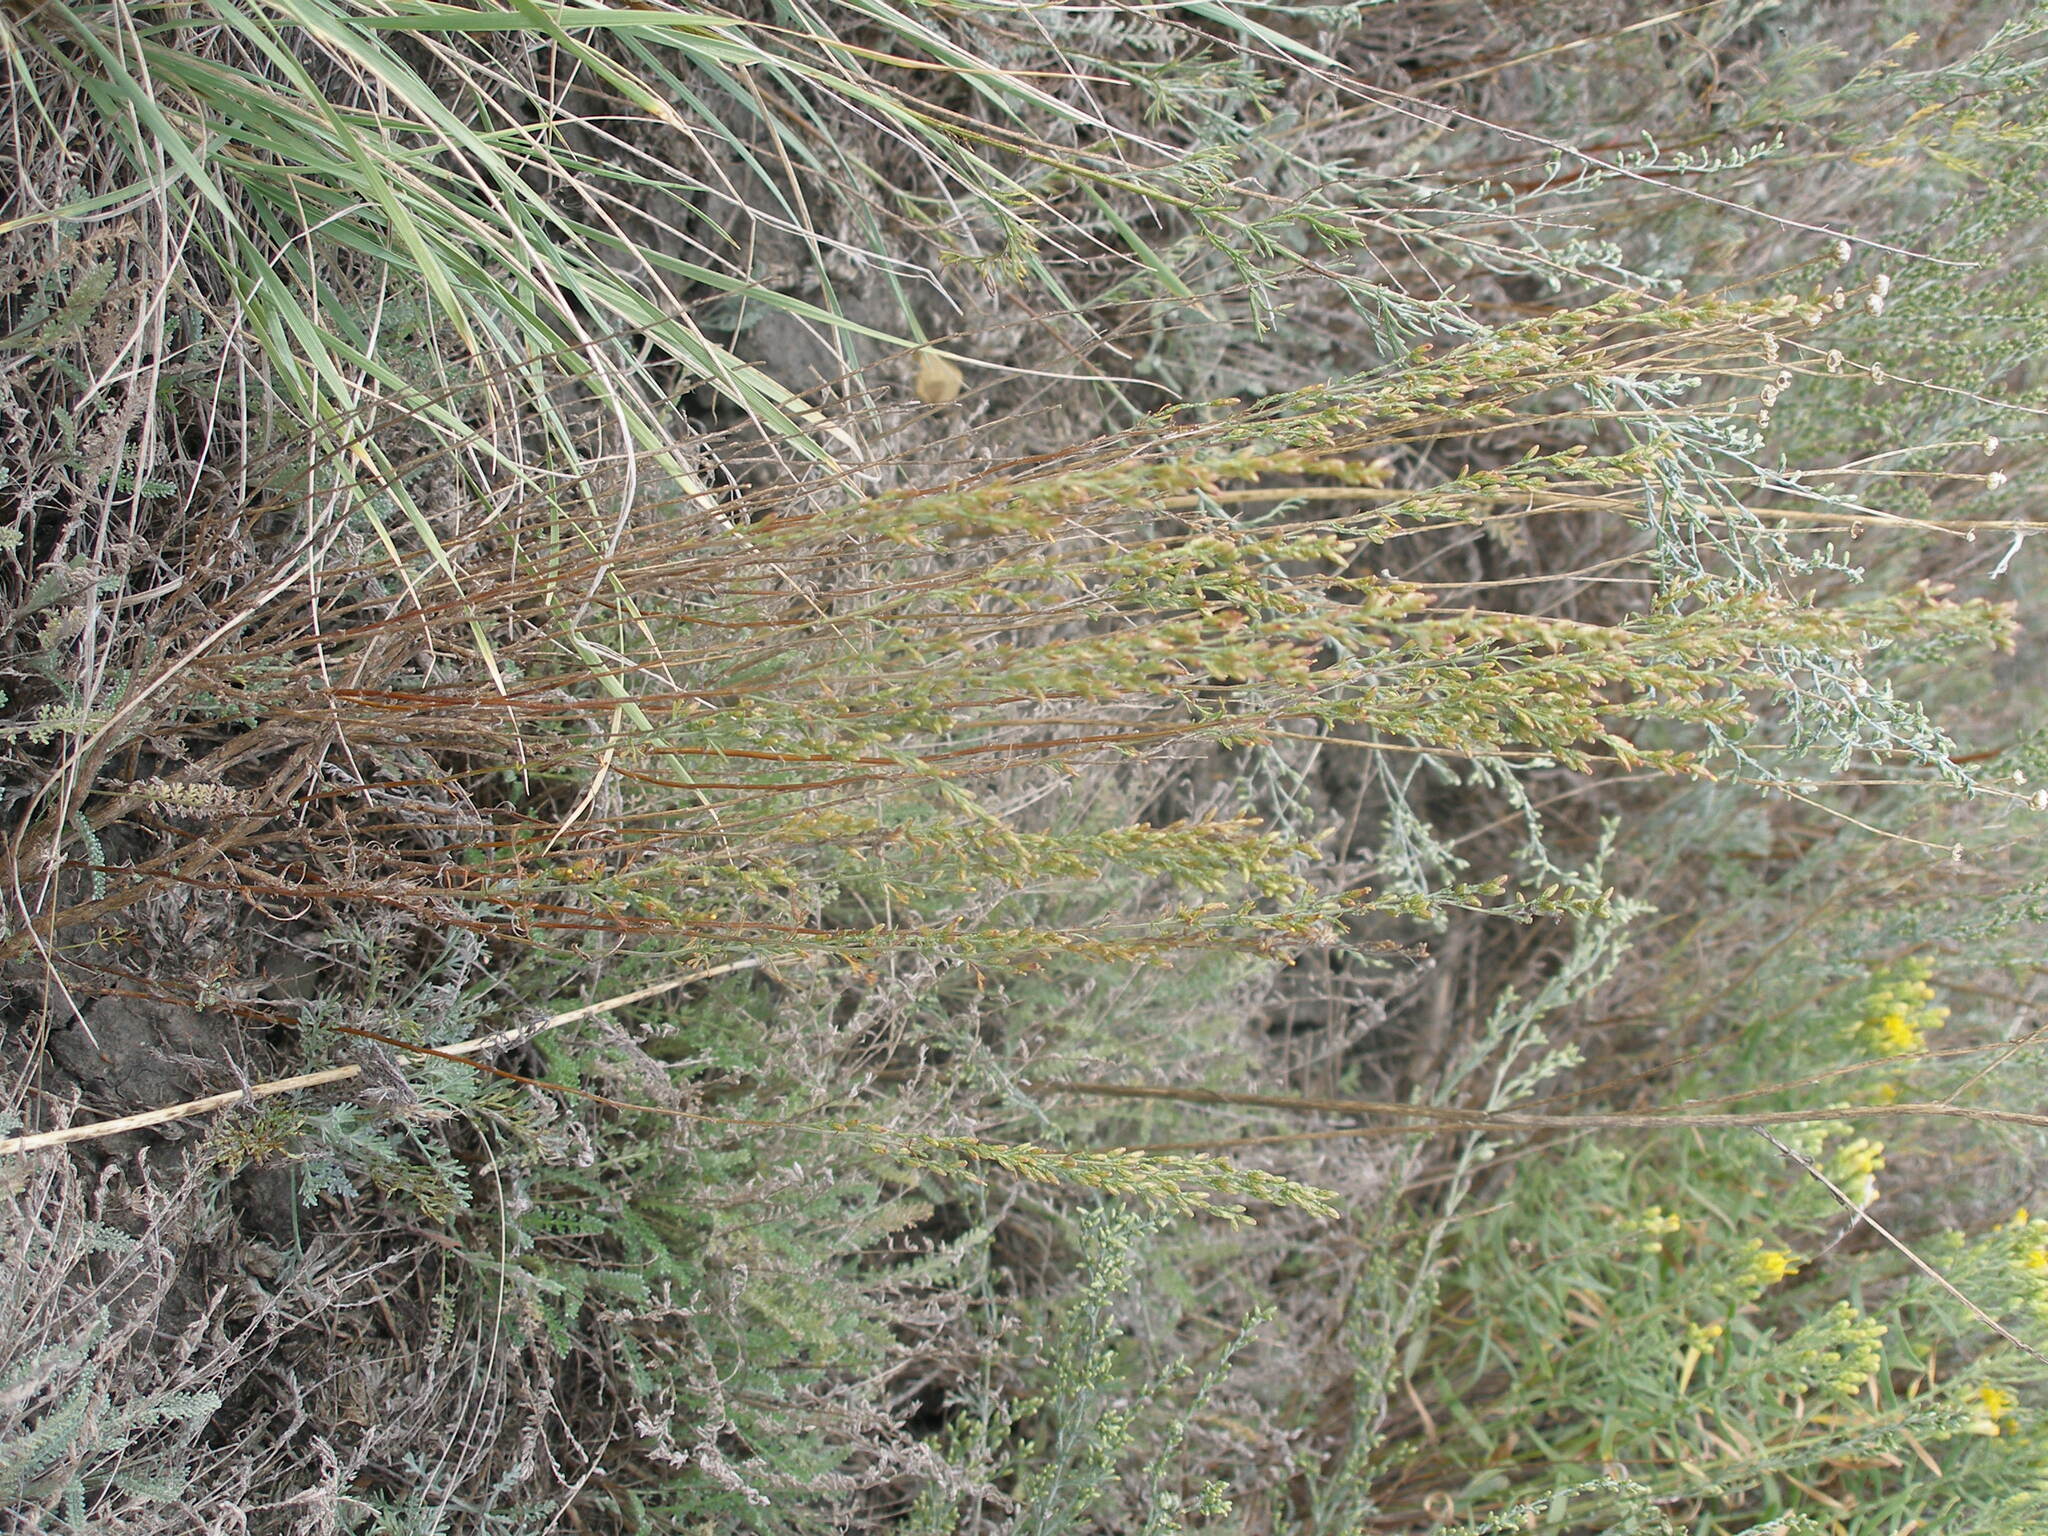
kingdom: Plantae
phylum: Tracheophyta
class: Magnoliopsida
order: Asterales
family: Asteraceae
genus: Artemisia
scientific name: Artemisia pauciflora
